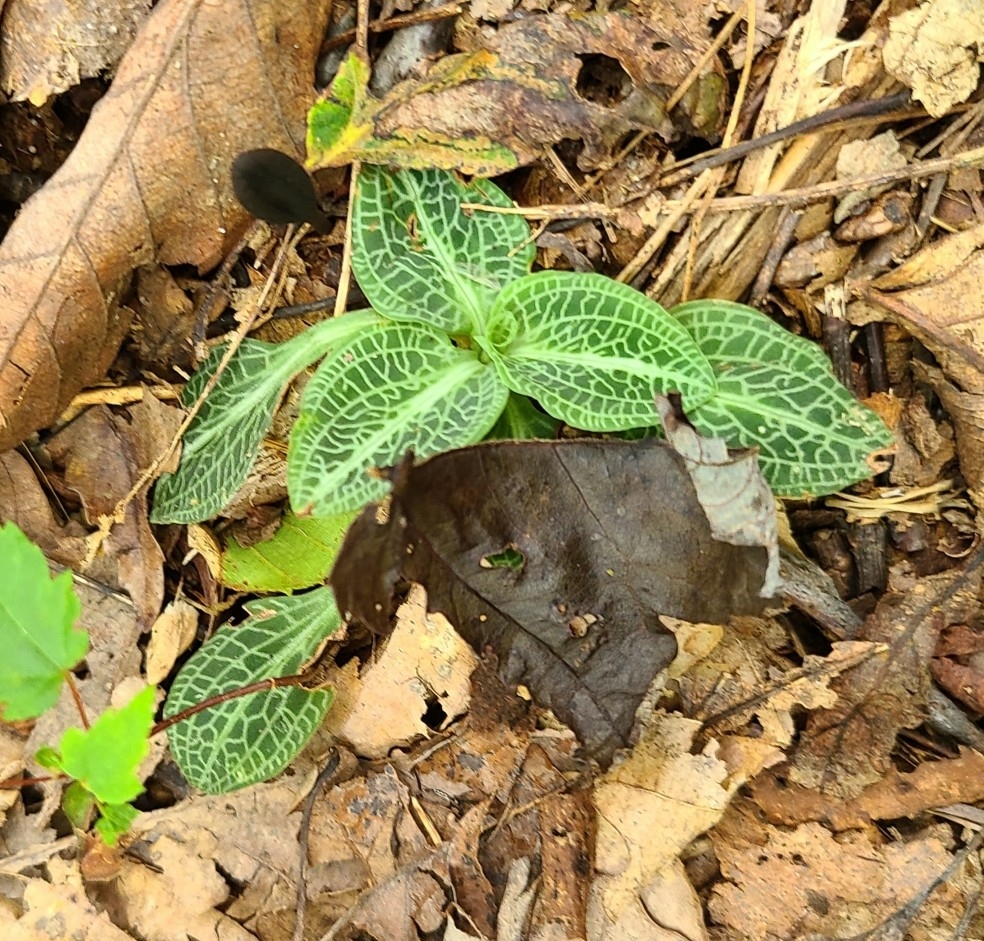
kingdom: Plantae
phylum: Tracheophyta
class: Liliopsida
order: Asparagales
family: Orchidaceae
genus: Goodyera
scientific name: Goodyera pubescens
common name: Downy rattlesnake-plantain
